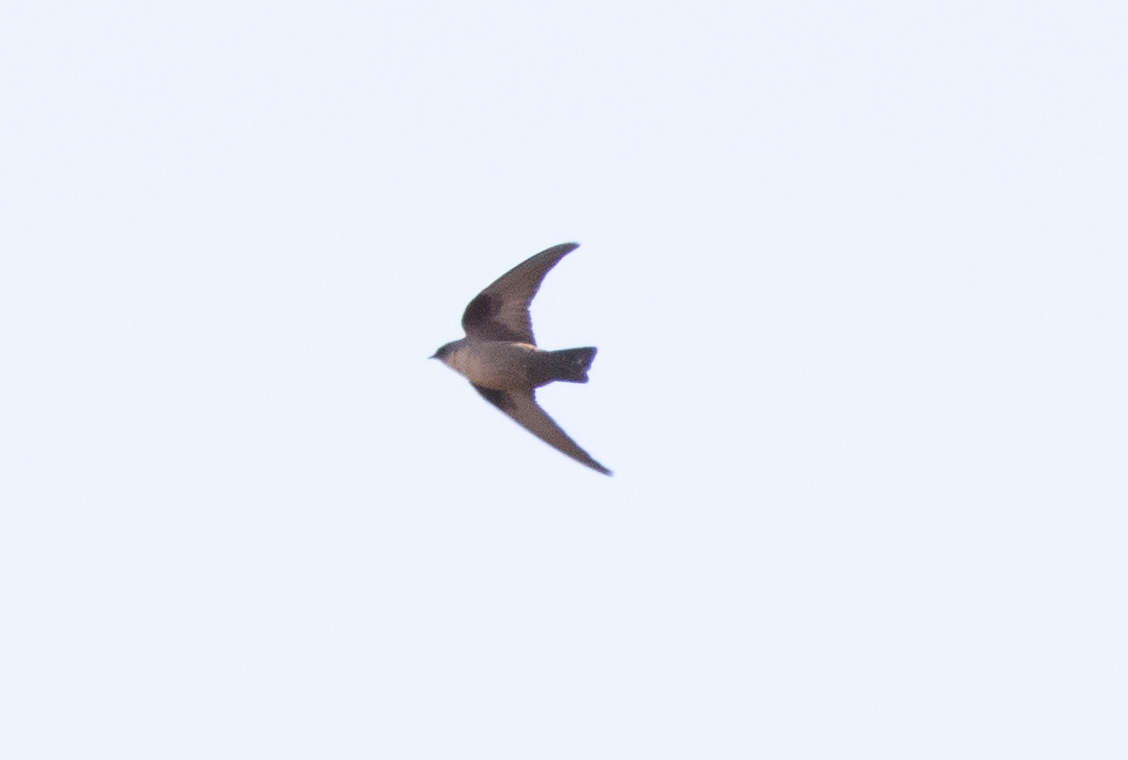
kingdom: Animalia
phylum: Chordata
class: Aves
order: Passeriformes
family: Hirundinidae
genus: Ptyonoprogne
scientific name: Ptyonoprogne rupestris
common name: Eurasian crag martin
